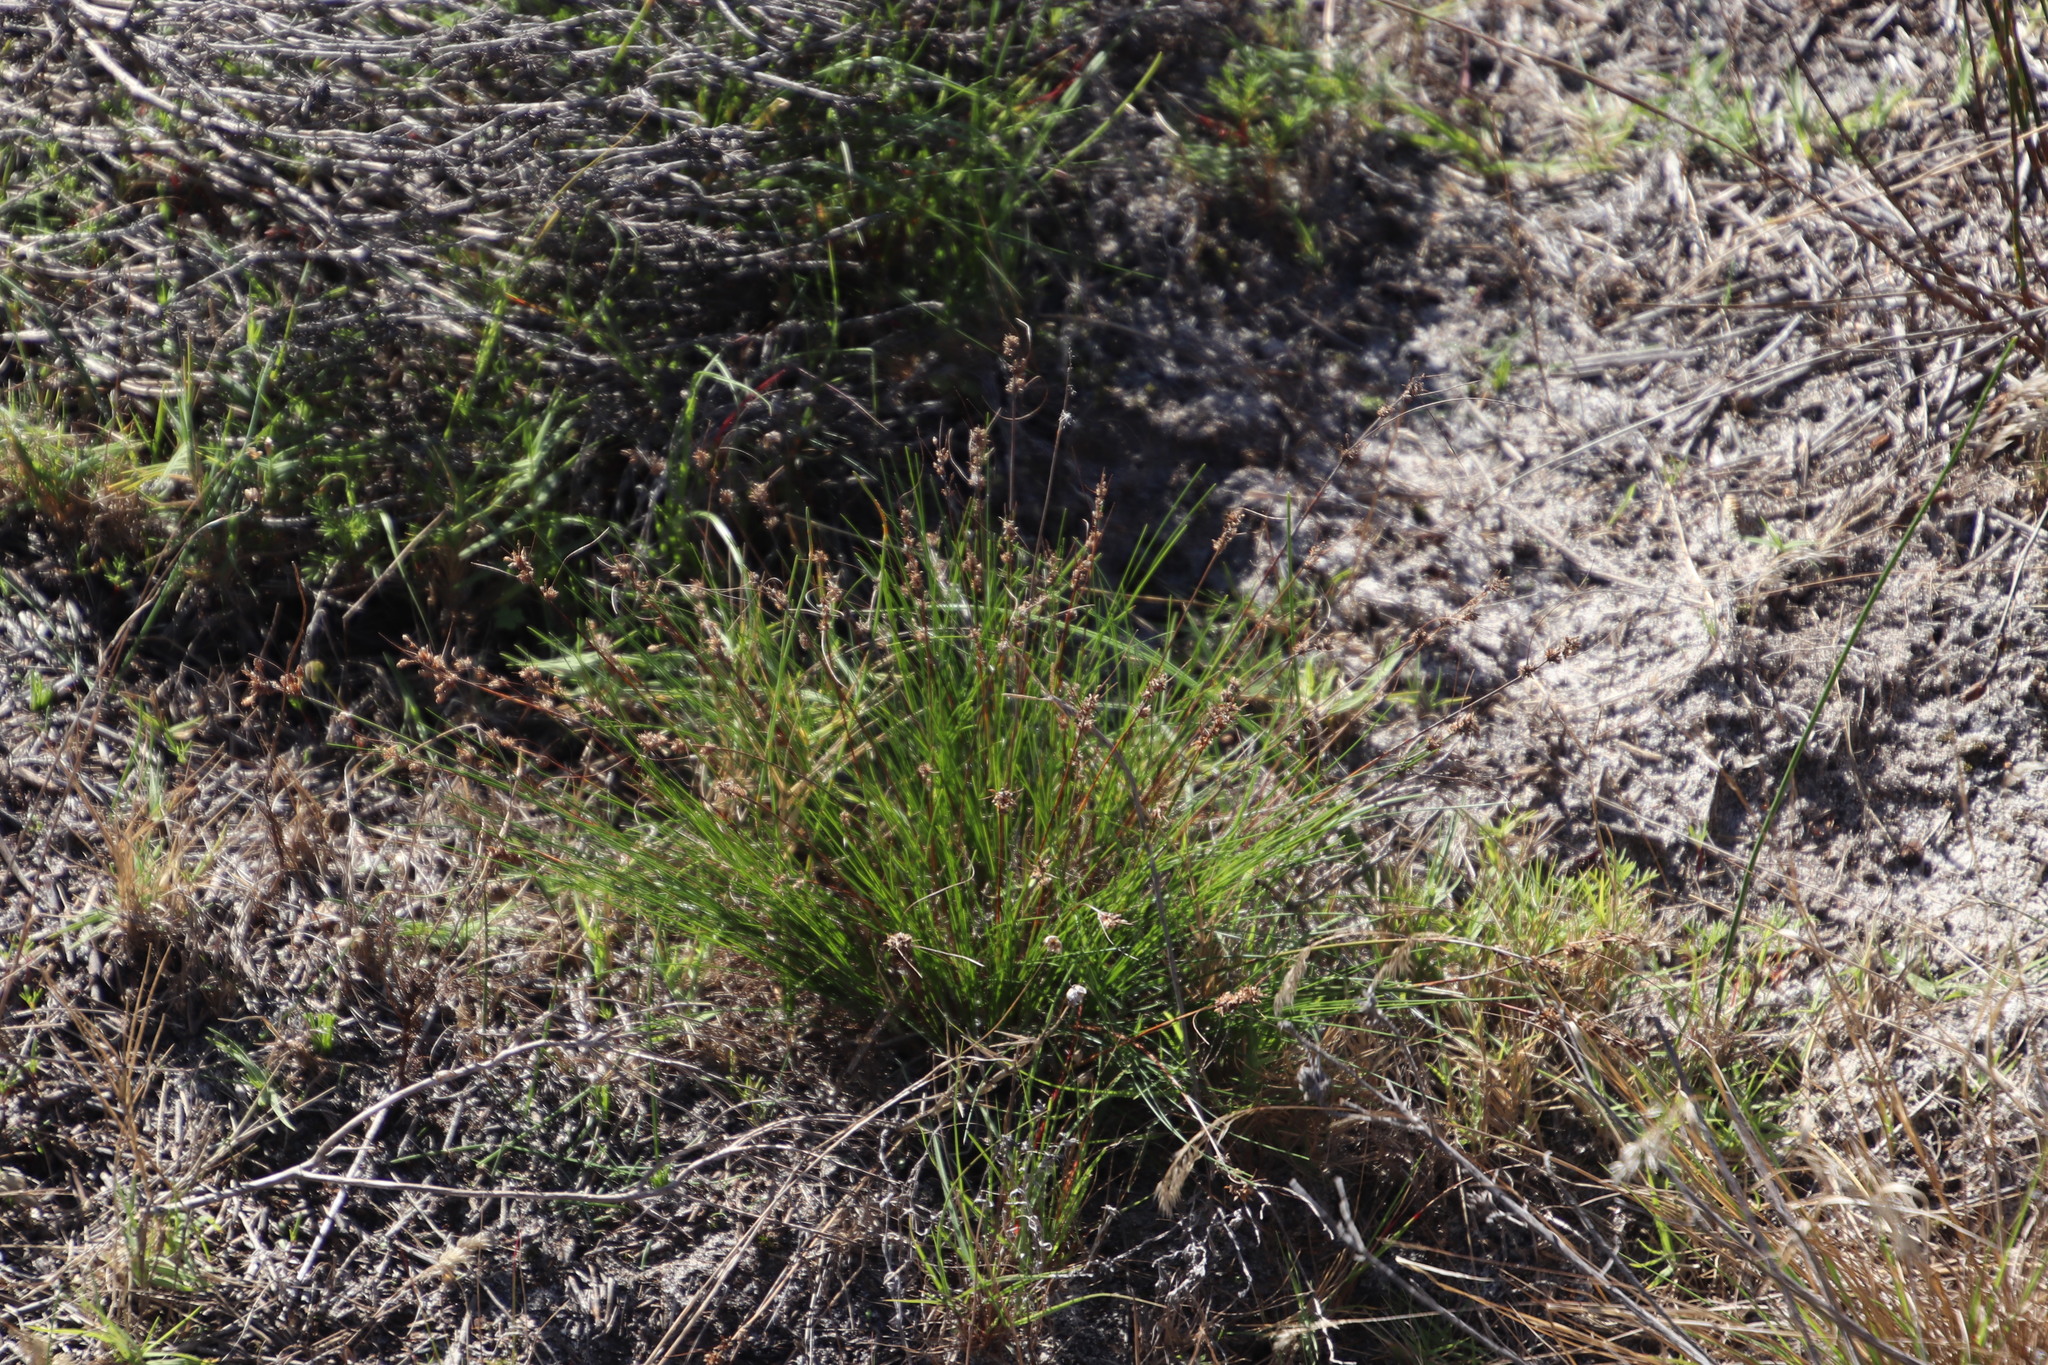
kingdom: Plantae
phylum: Tracheophyta
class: Liliopsida
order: Poales
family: Cyperaceae
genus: Ficinia
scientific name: Ficinia bulbosa
